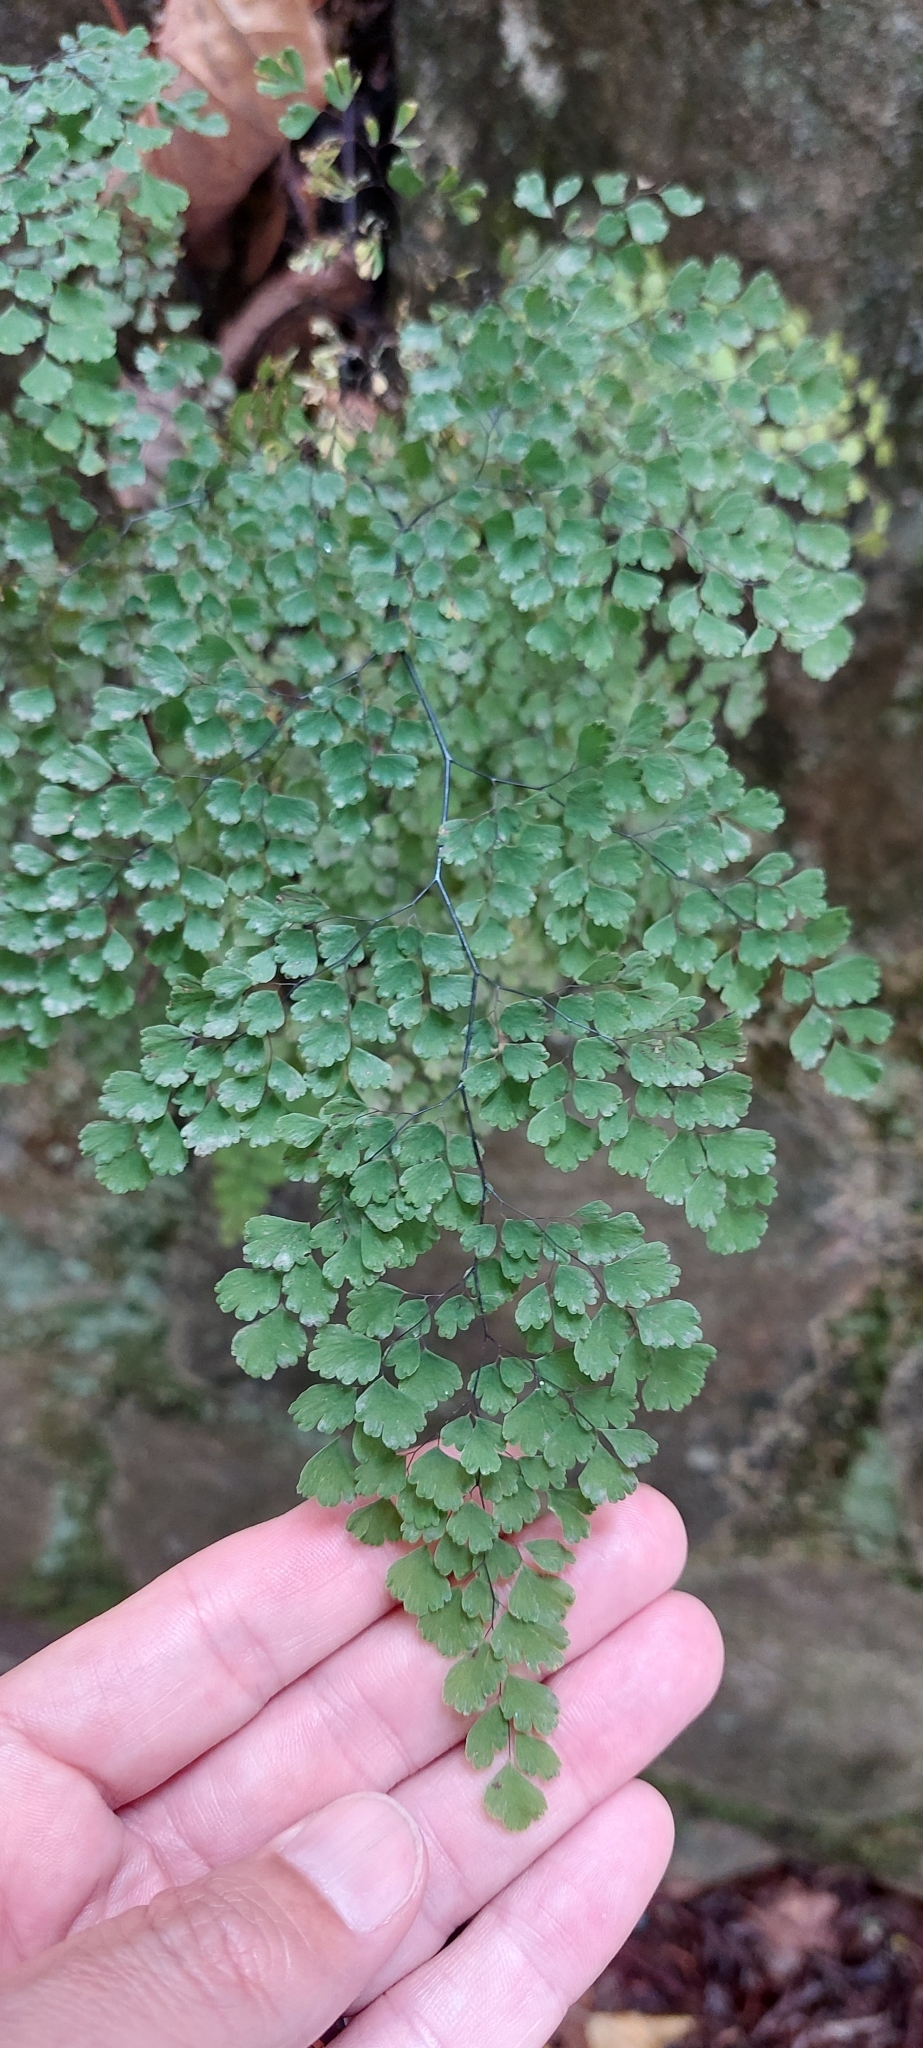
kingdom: Plantae
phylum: Tracheophyta
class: Polypodiopsida
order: Polypodiales
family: Pteridaceae
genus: Adiantum
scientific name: Adiantum raddianum
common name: Delta maidenhair fern
